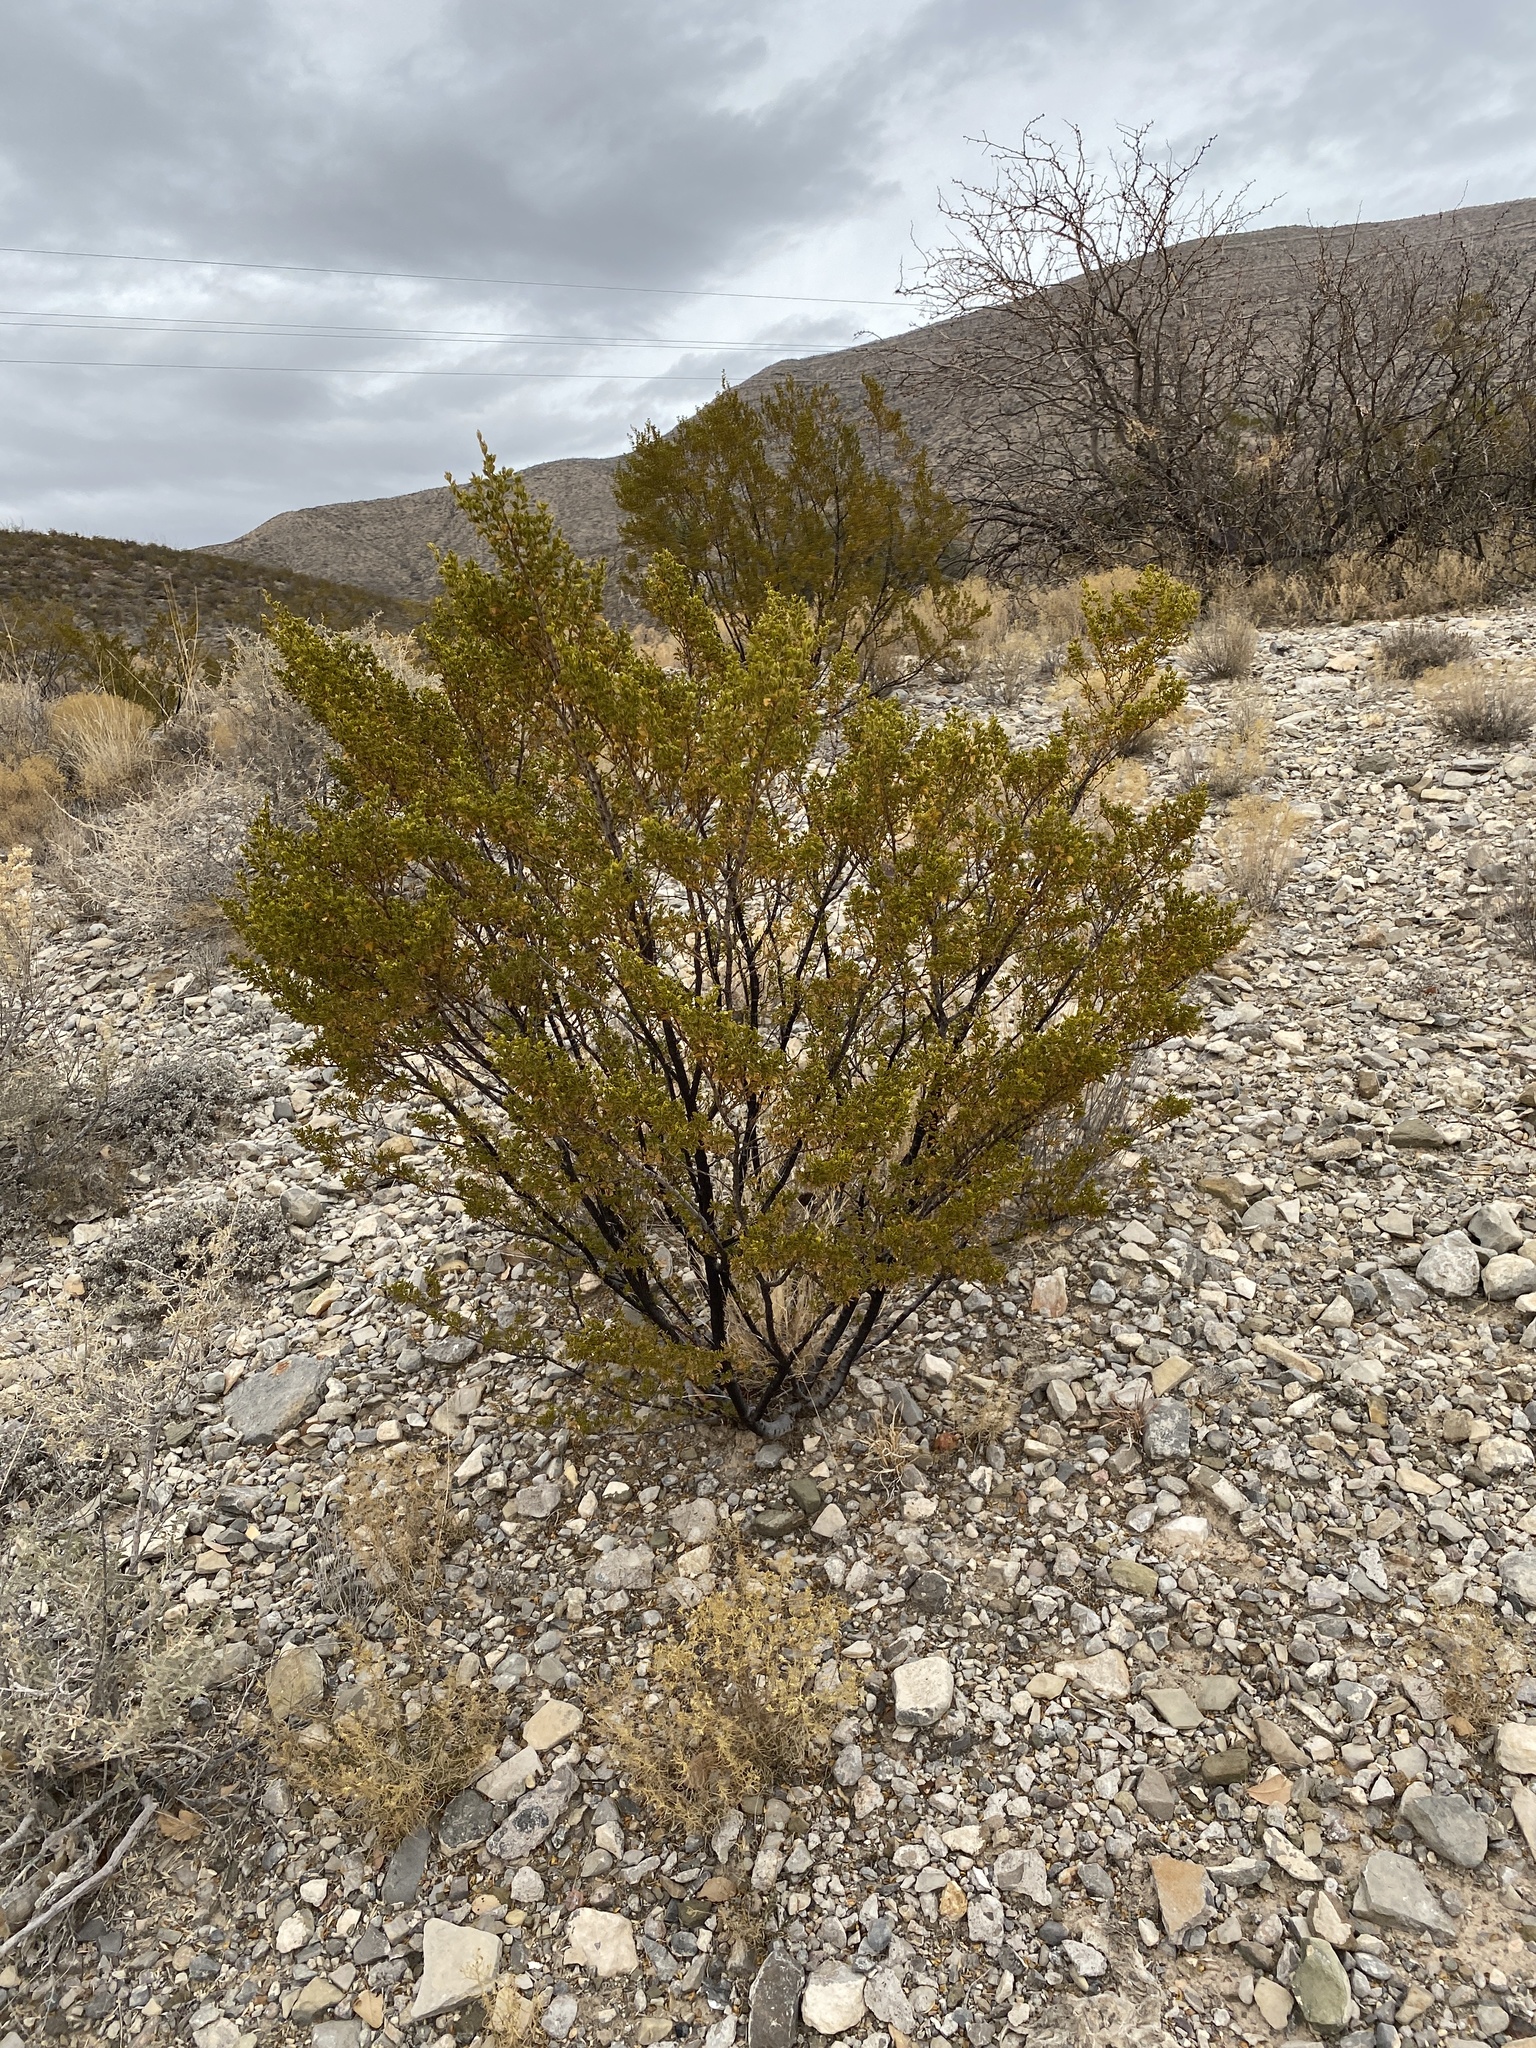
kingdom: Plantae
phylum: Tracheophyta
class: Magnoliopsida
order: Zygophyllales
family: Zygophyllaceae
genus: Larrea
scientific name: Larrea tridentata
